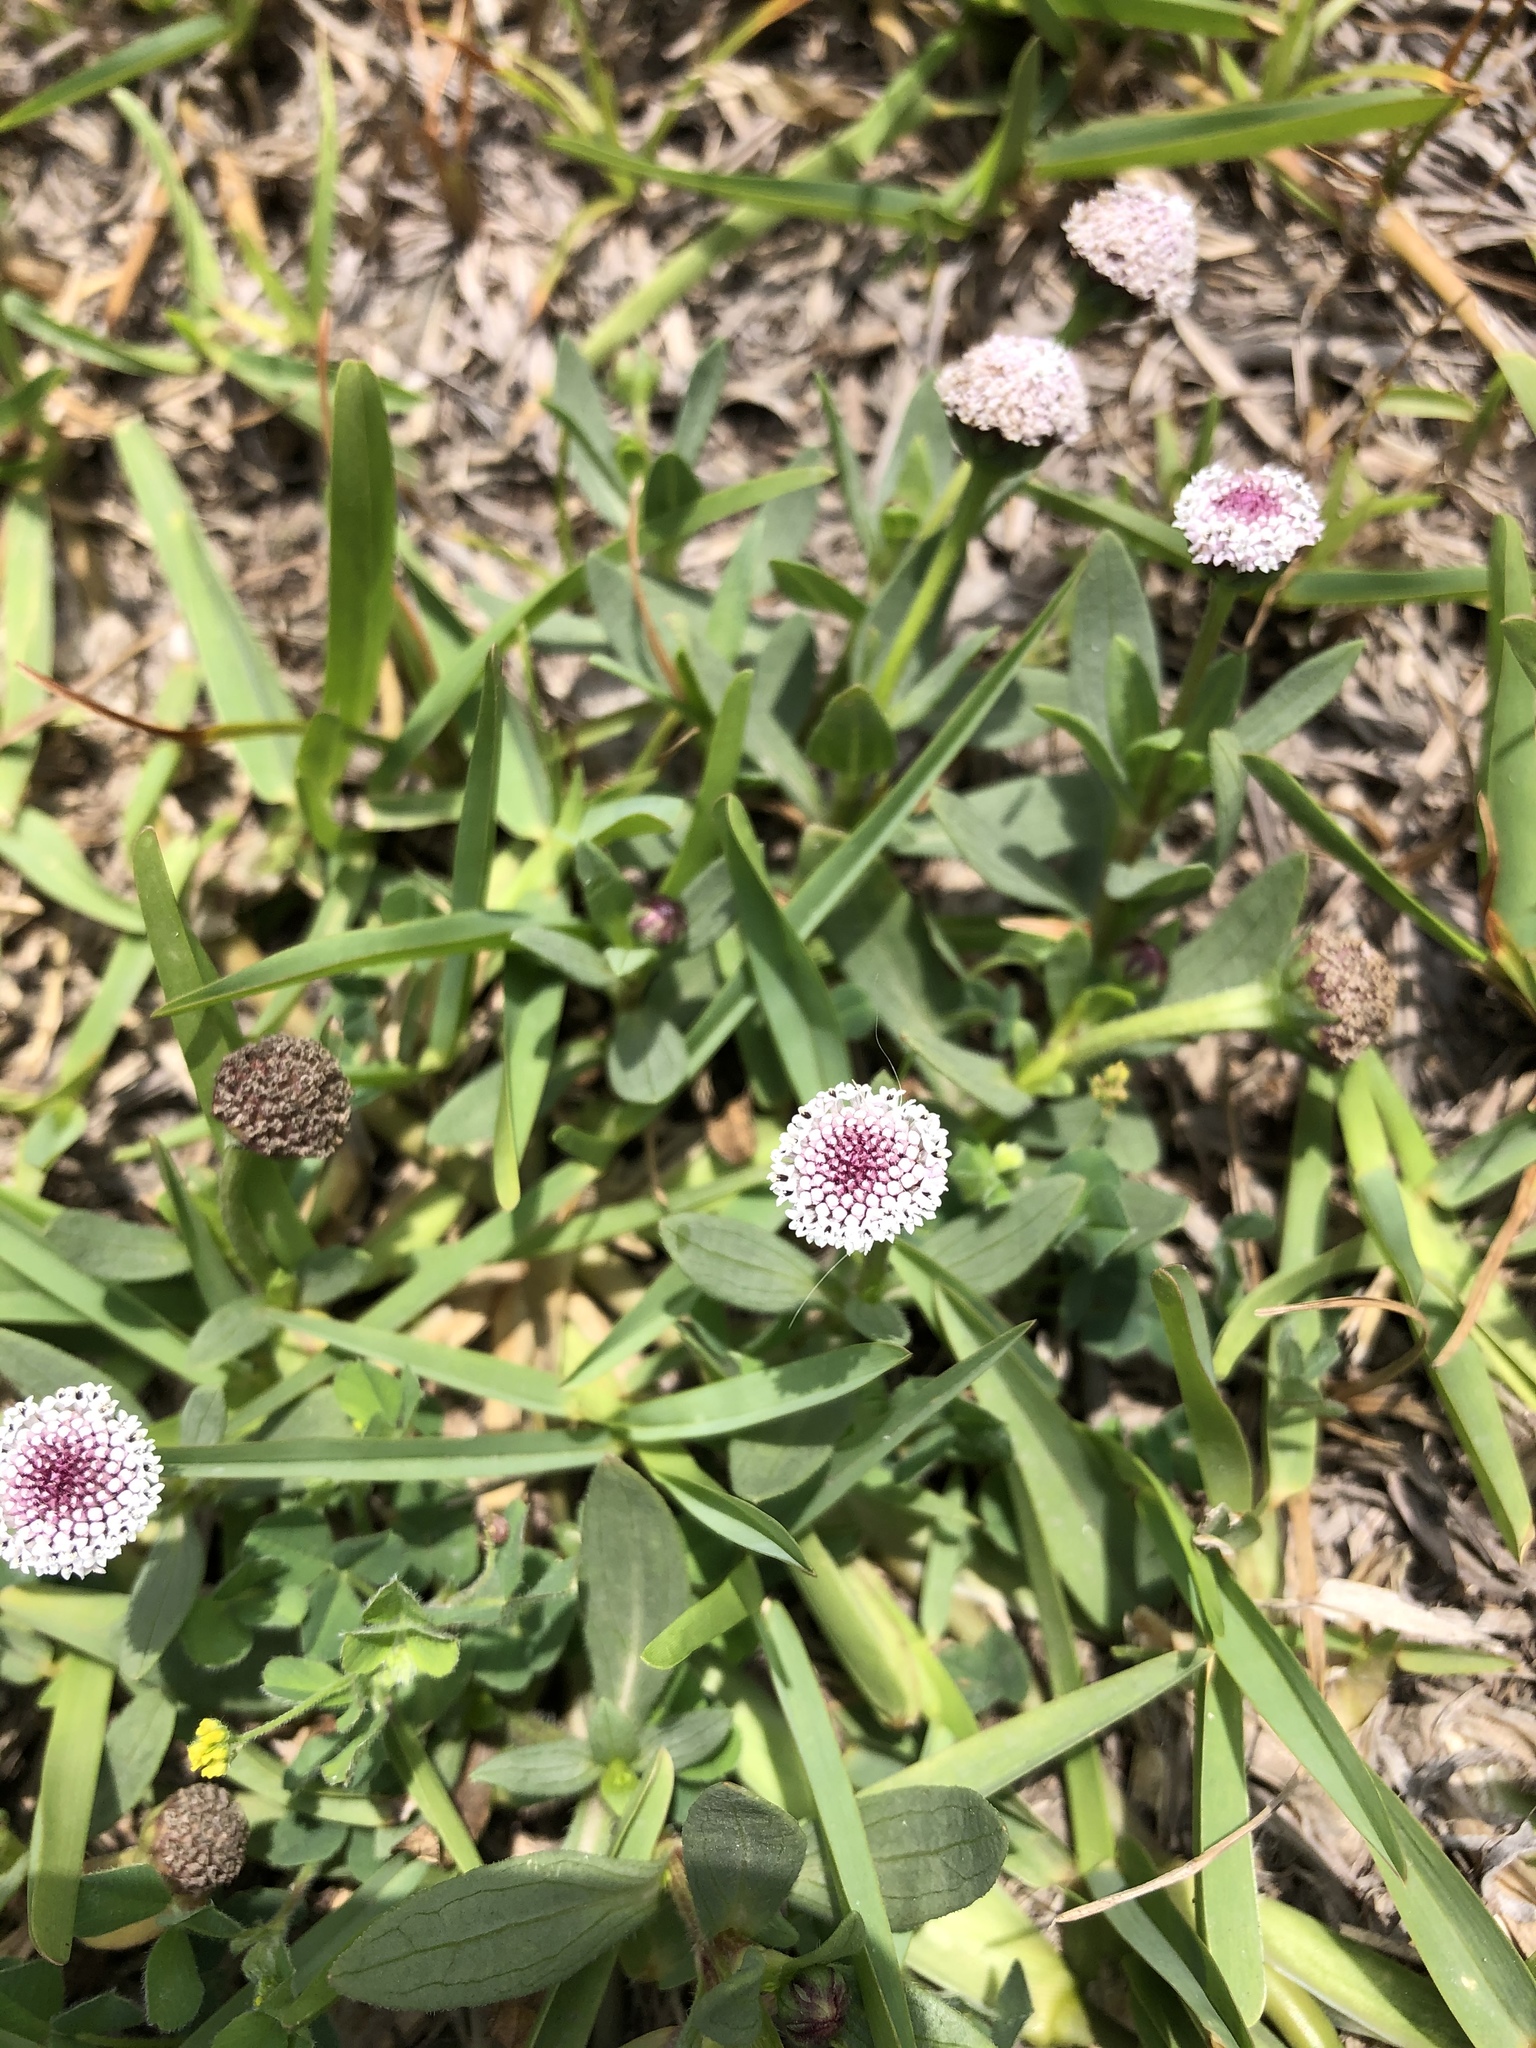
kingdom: Plantae
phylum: Tracheophyta
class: Magnoliopsida
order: Lamiales
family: Verbenaceae
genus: Phyla
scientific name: Phyla nodiflora
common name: Frogfruit
